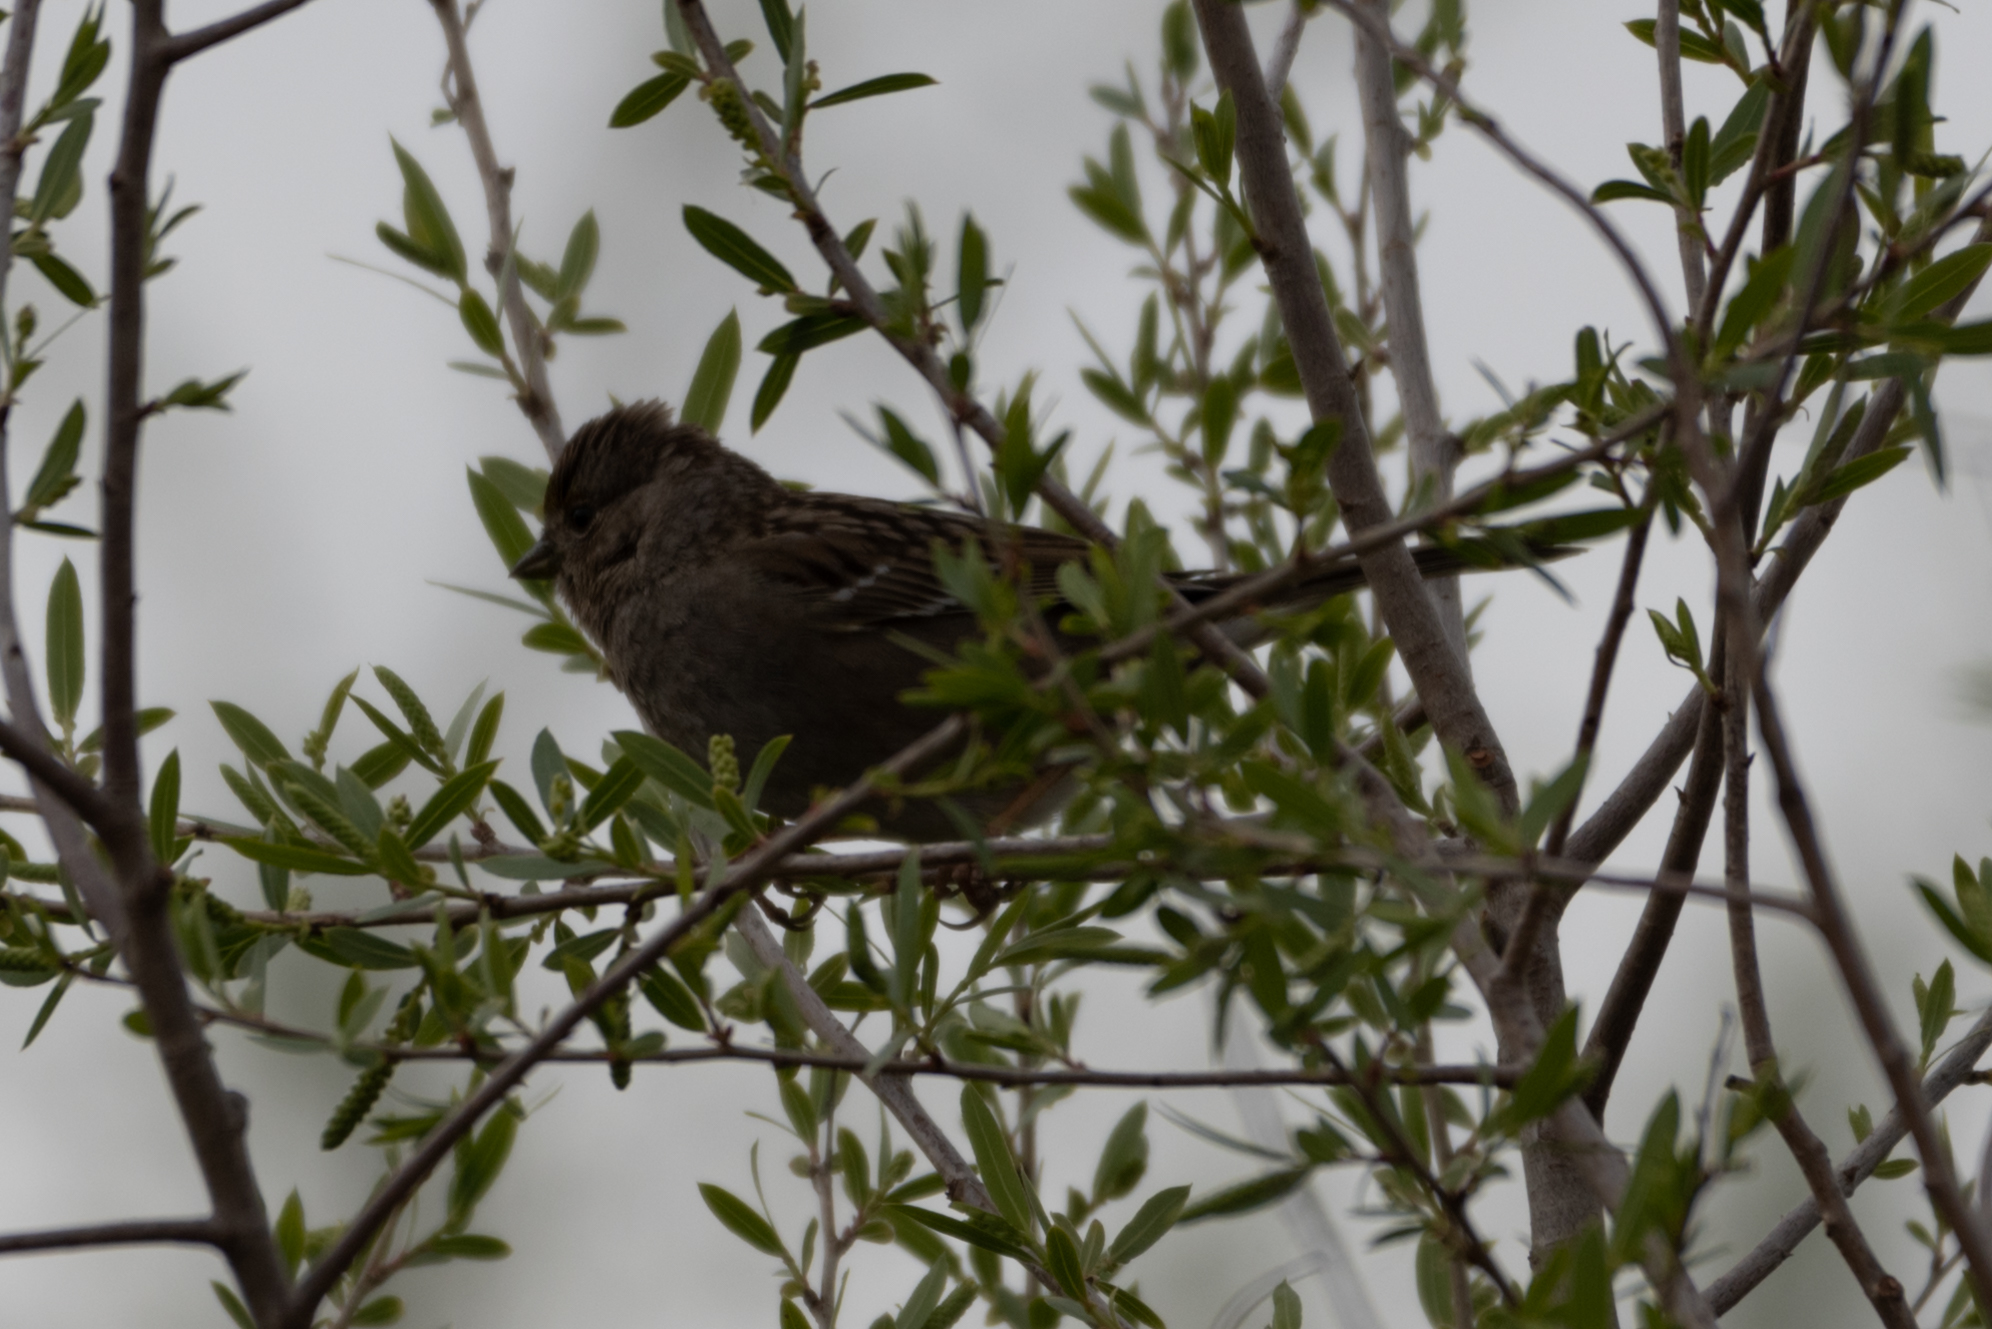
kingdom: Animalia
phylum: Chordata
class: Aves
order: Passeriformes
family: Passerellidae
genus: Zonotrichia
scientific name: Zonotrichia atricapilla
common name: Golden-crowned sparrow
